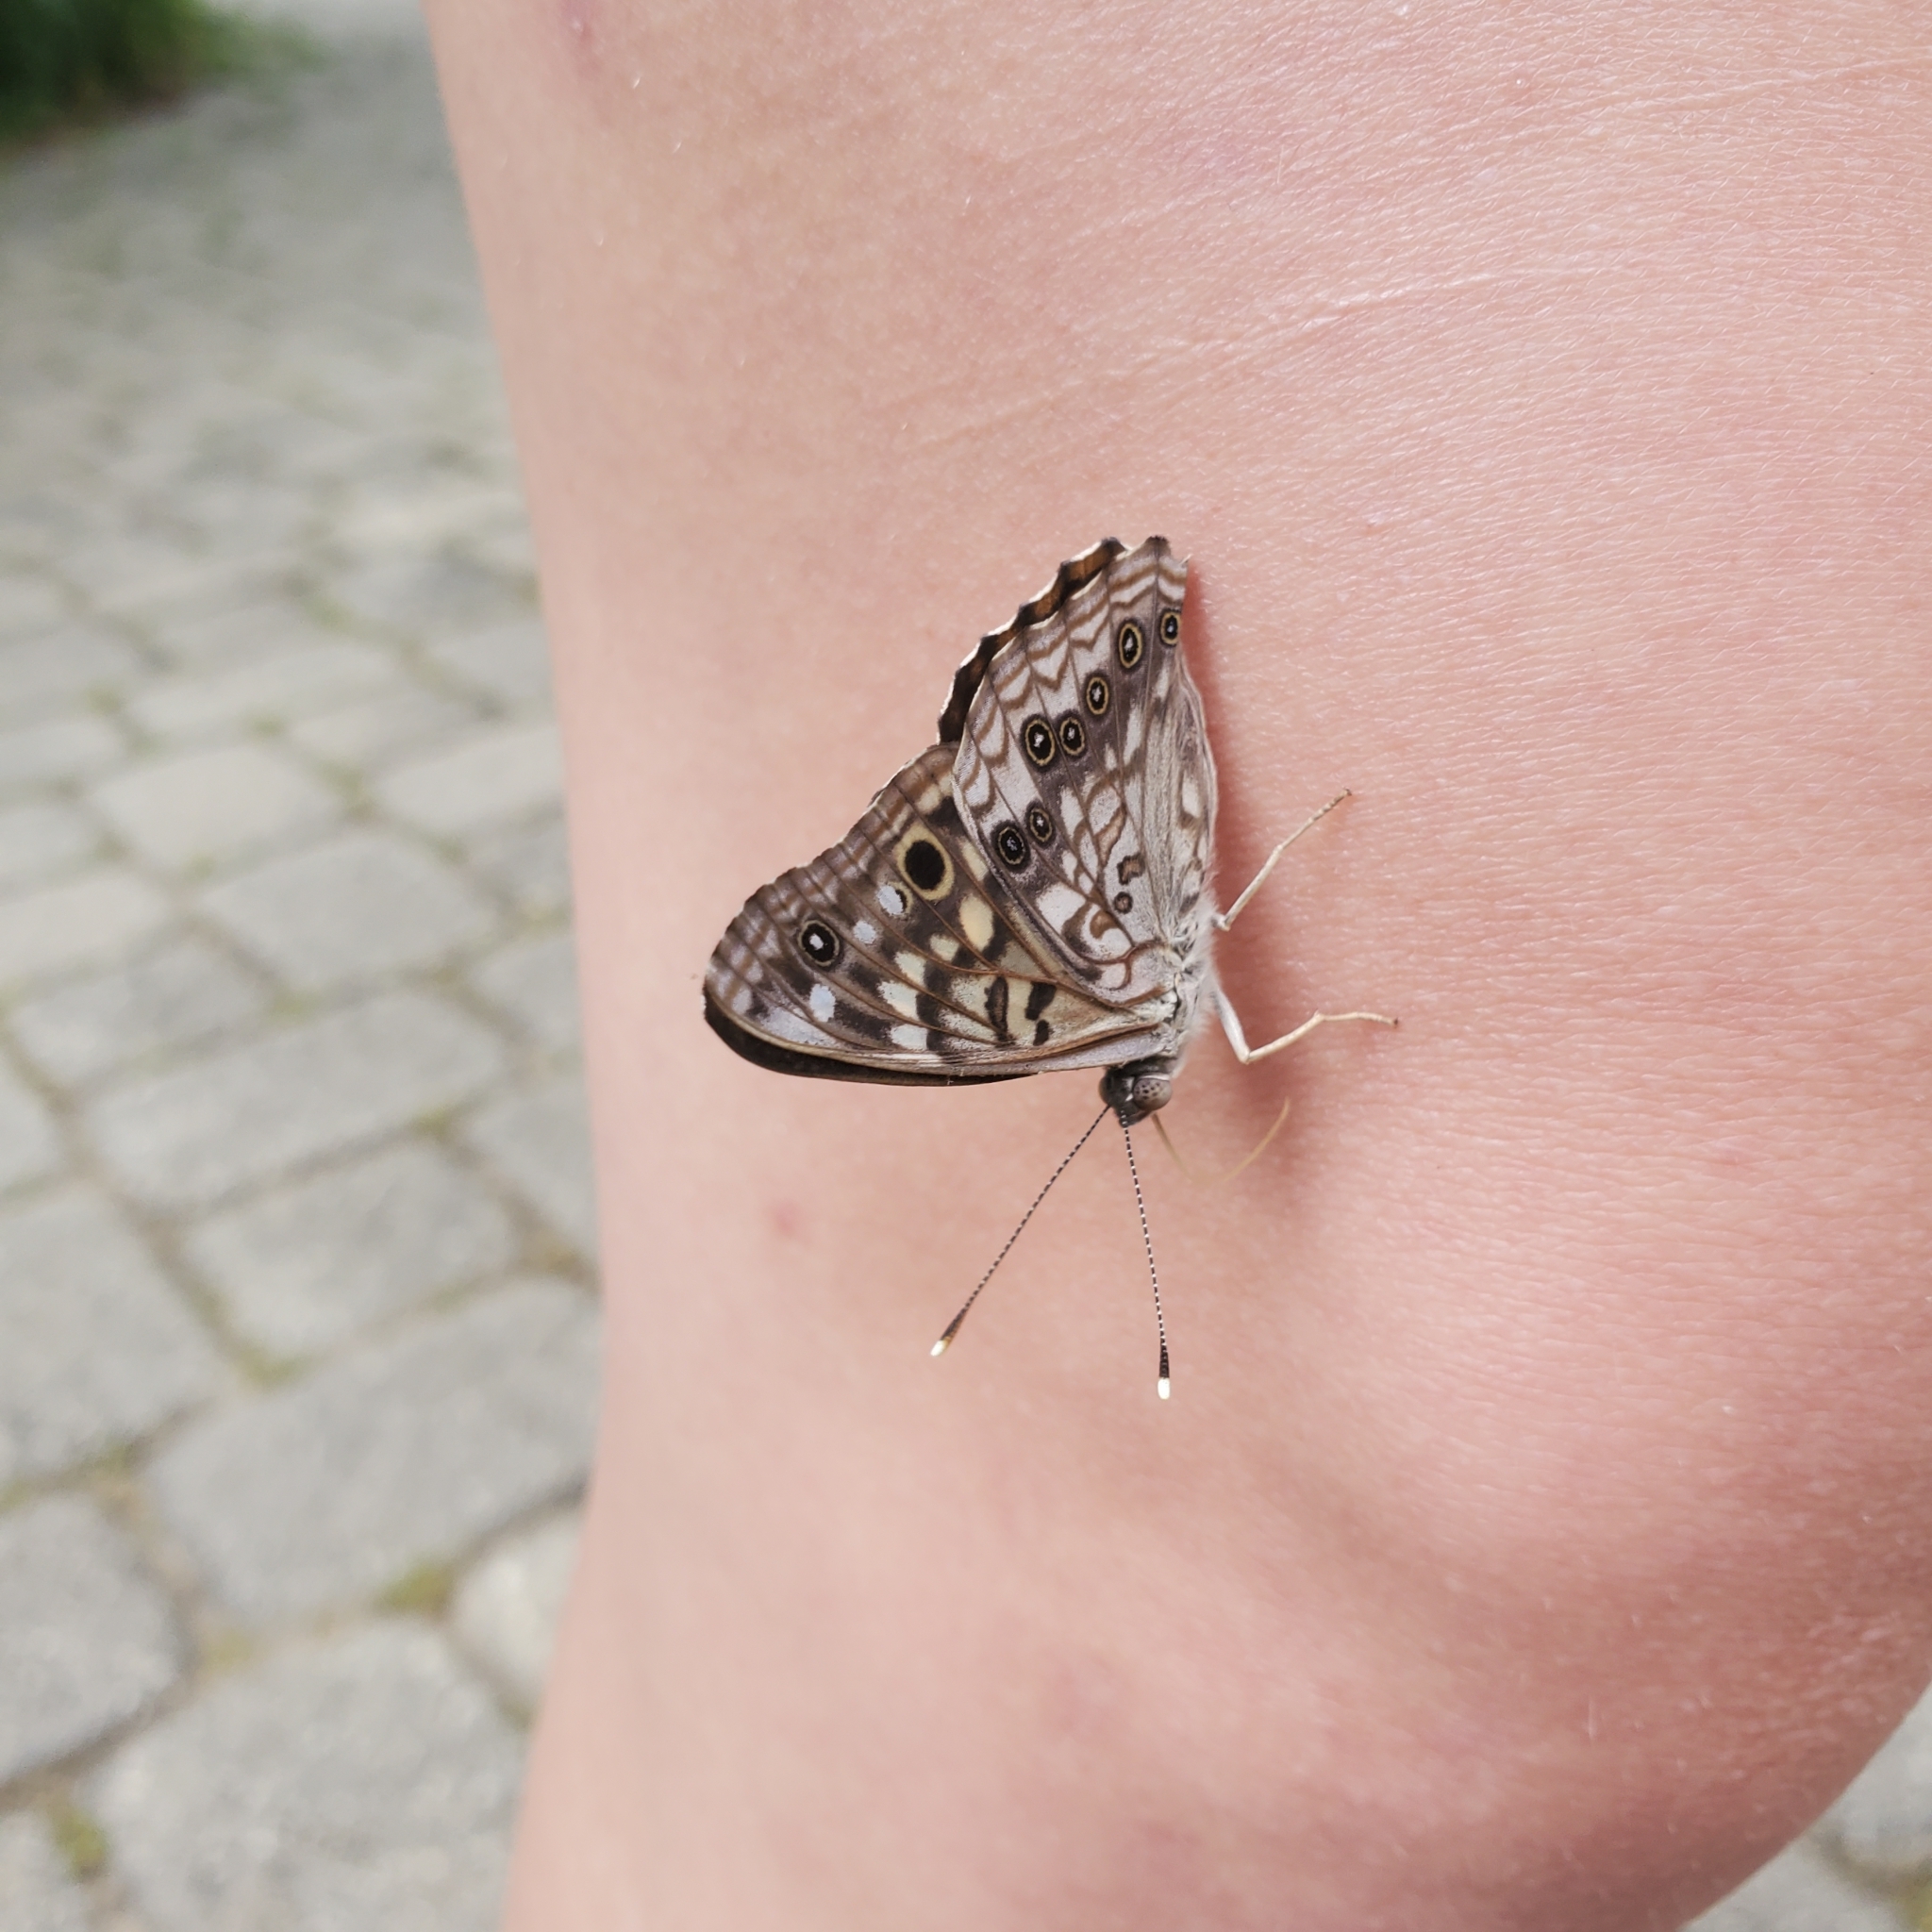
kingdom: Animalia
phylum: Arthropoda
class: Insecta
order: Lepidoptera
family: Nymphalidae
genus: Asterocampa
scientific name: Asterocampa celtis
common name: Hackberry emperor
